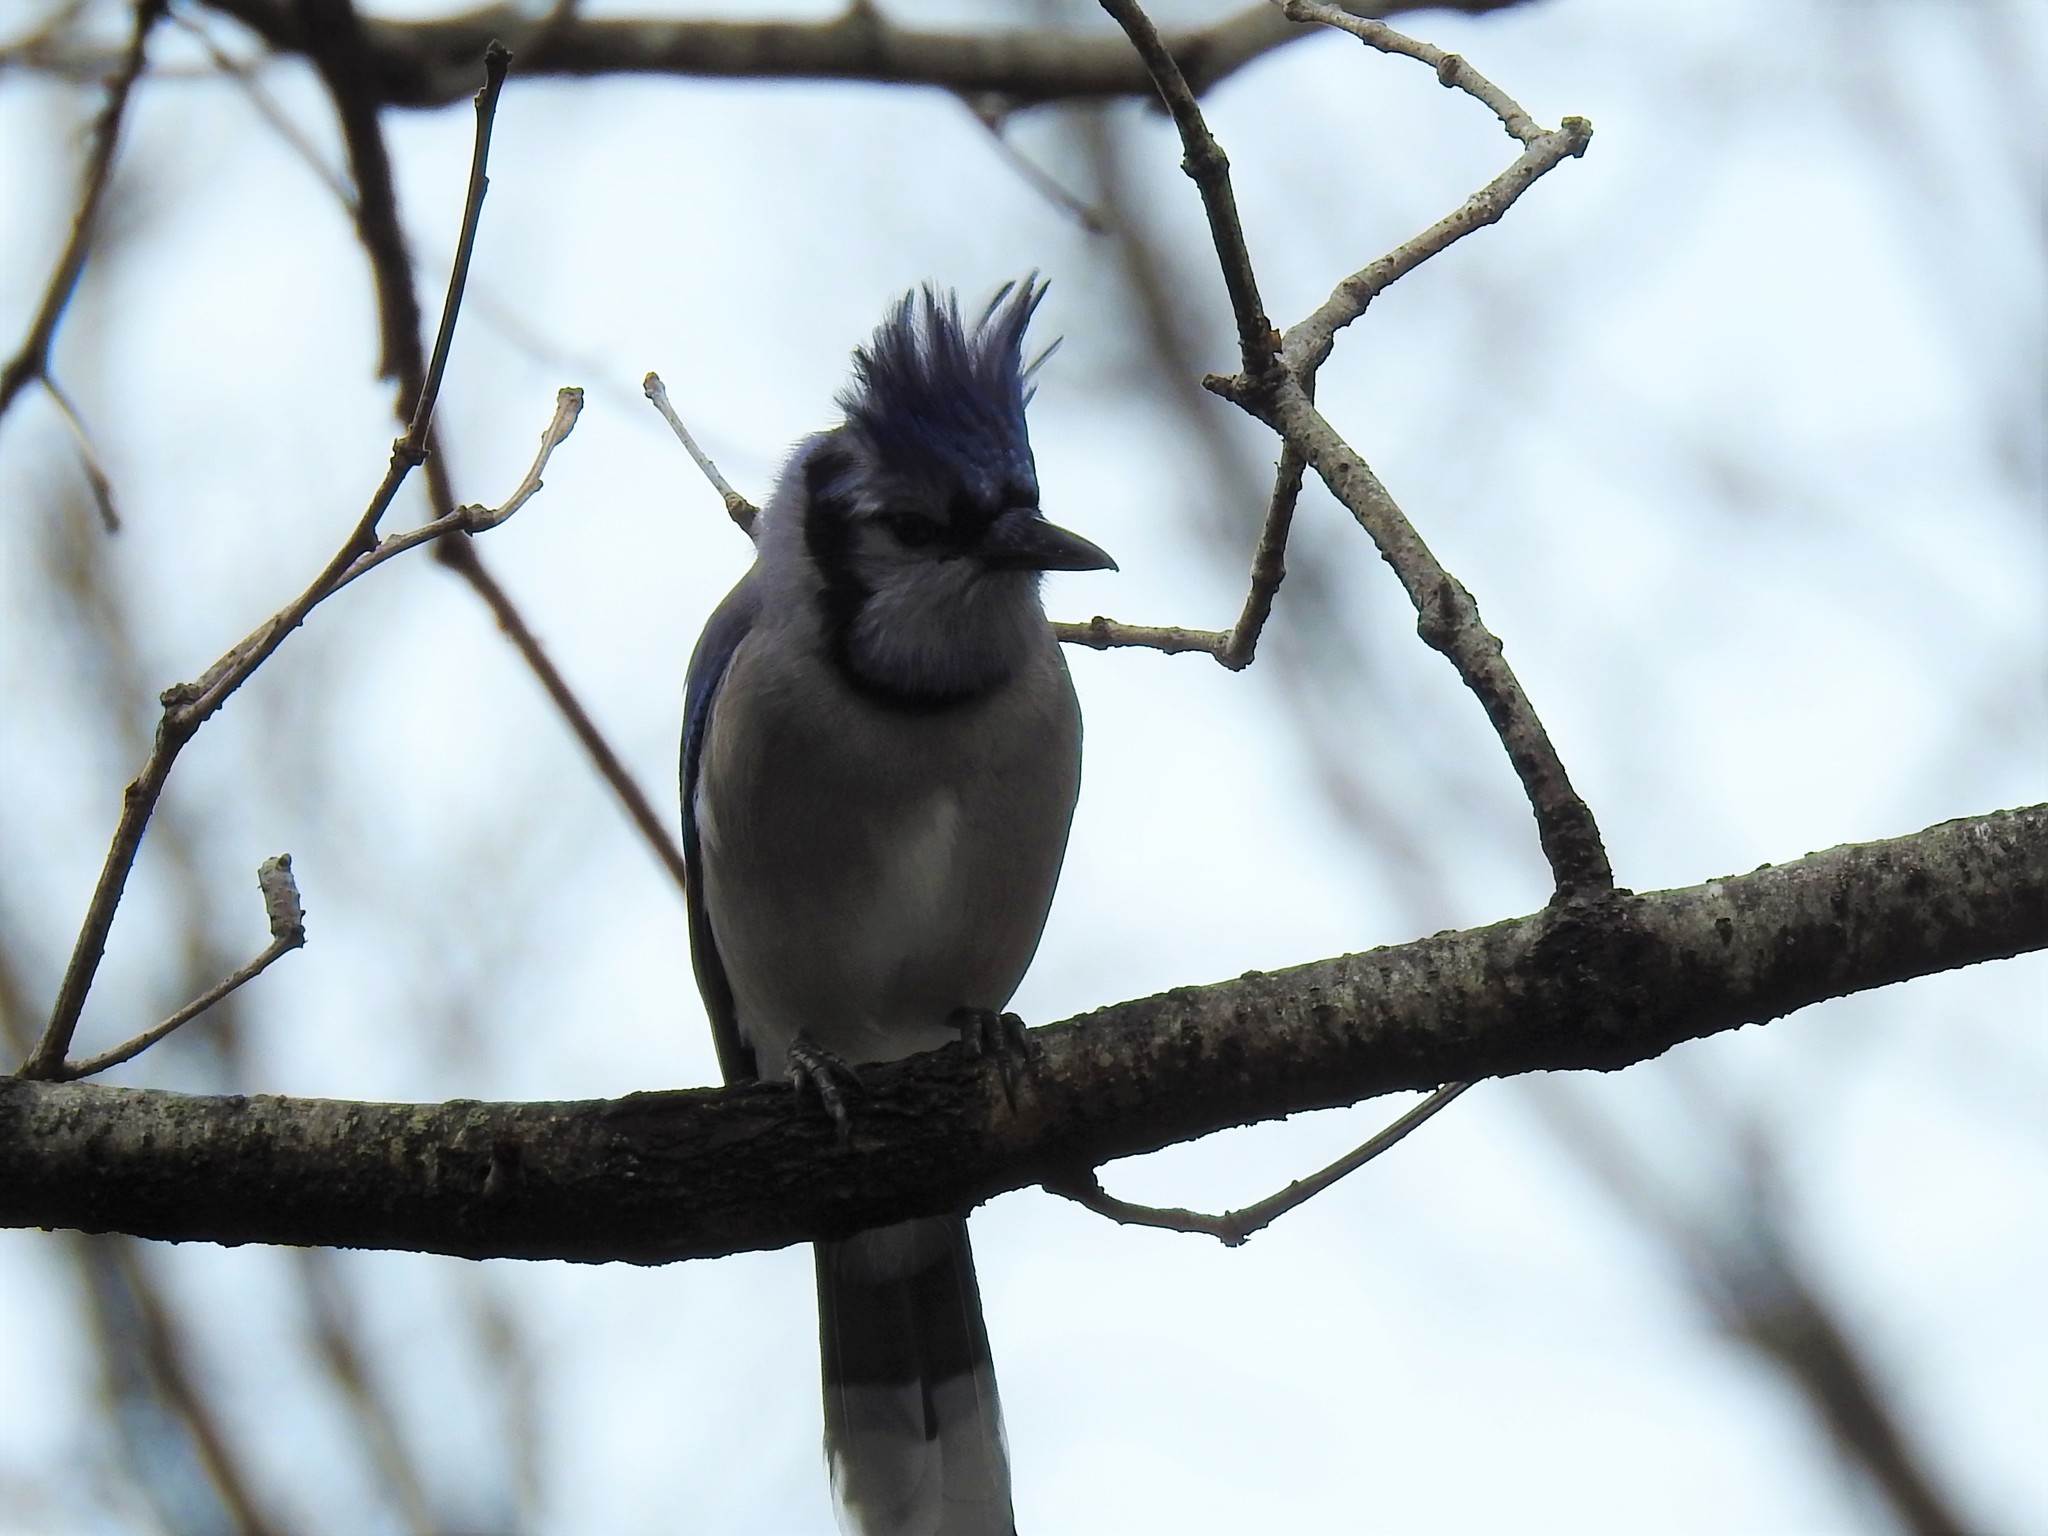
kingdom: Animalia
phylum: Chordata
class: Aves
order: Passeriformes
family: Corvidae
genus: Cyanocitta
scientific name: Cyanocitta cristata
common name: Blue jay
